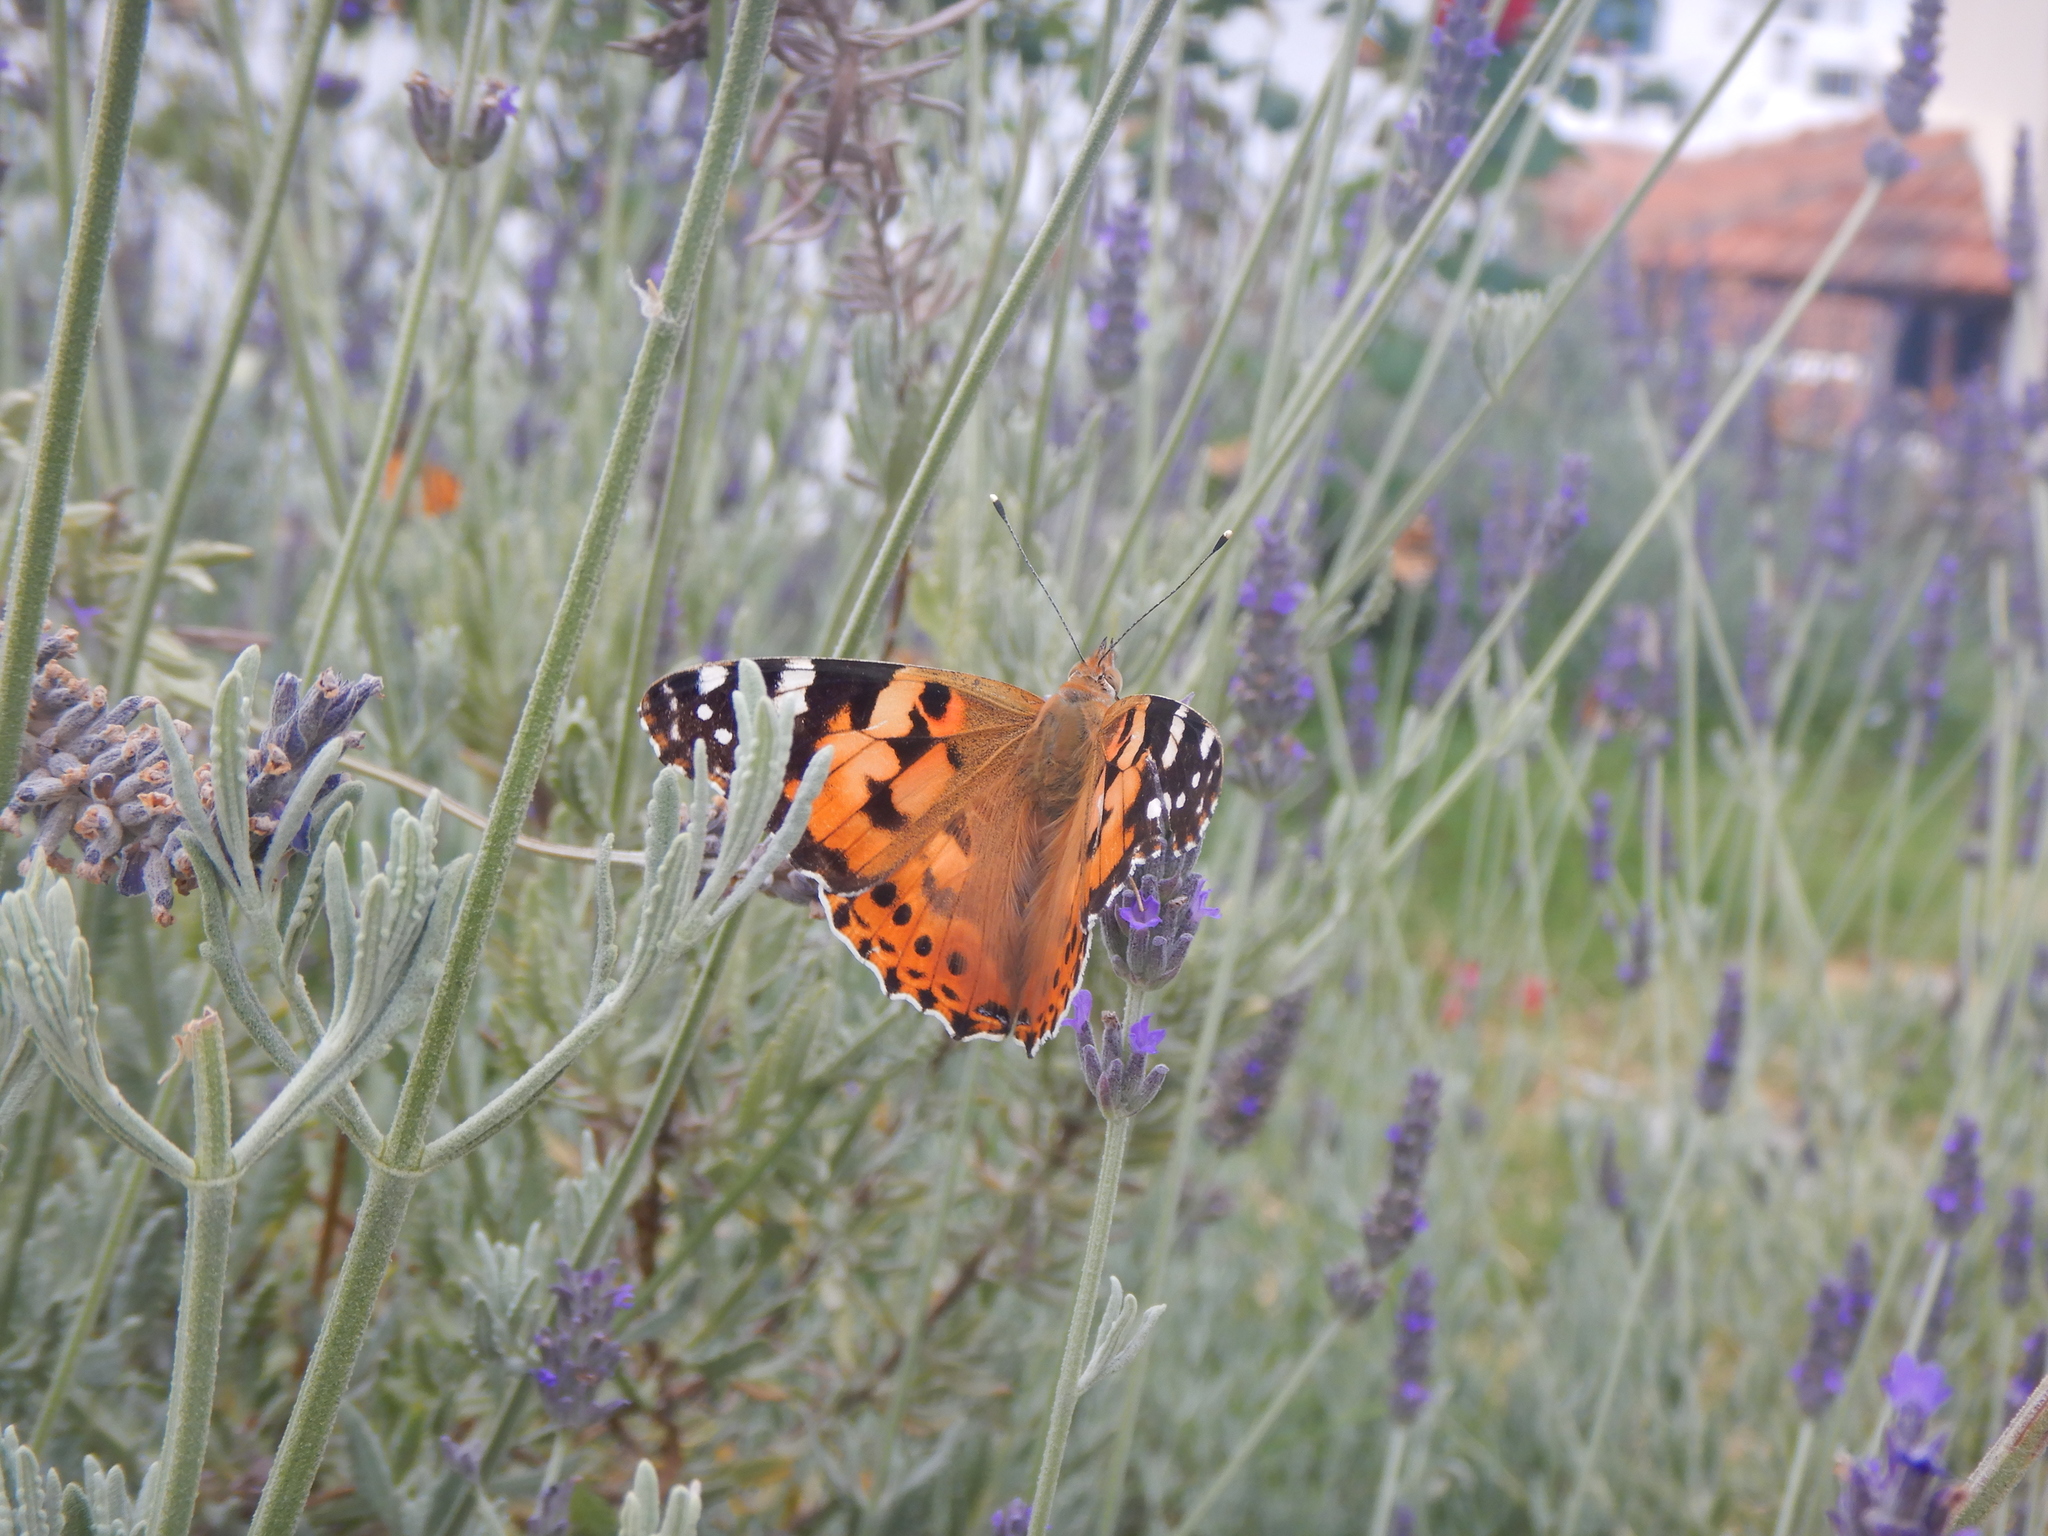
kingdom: Animalia
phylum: Arthropoda
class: Insecta
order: Lepidoptera
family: Nymphalidae
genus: Vanessa
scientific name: Vanessa cardui
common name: Painted lady
